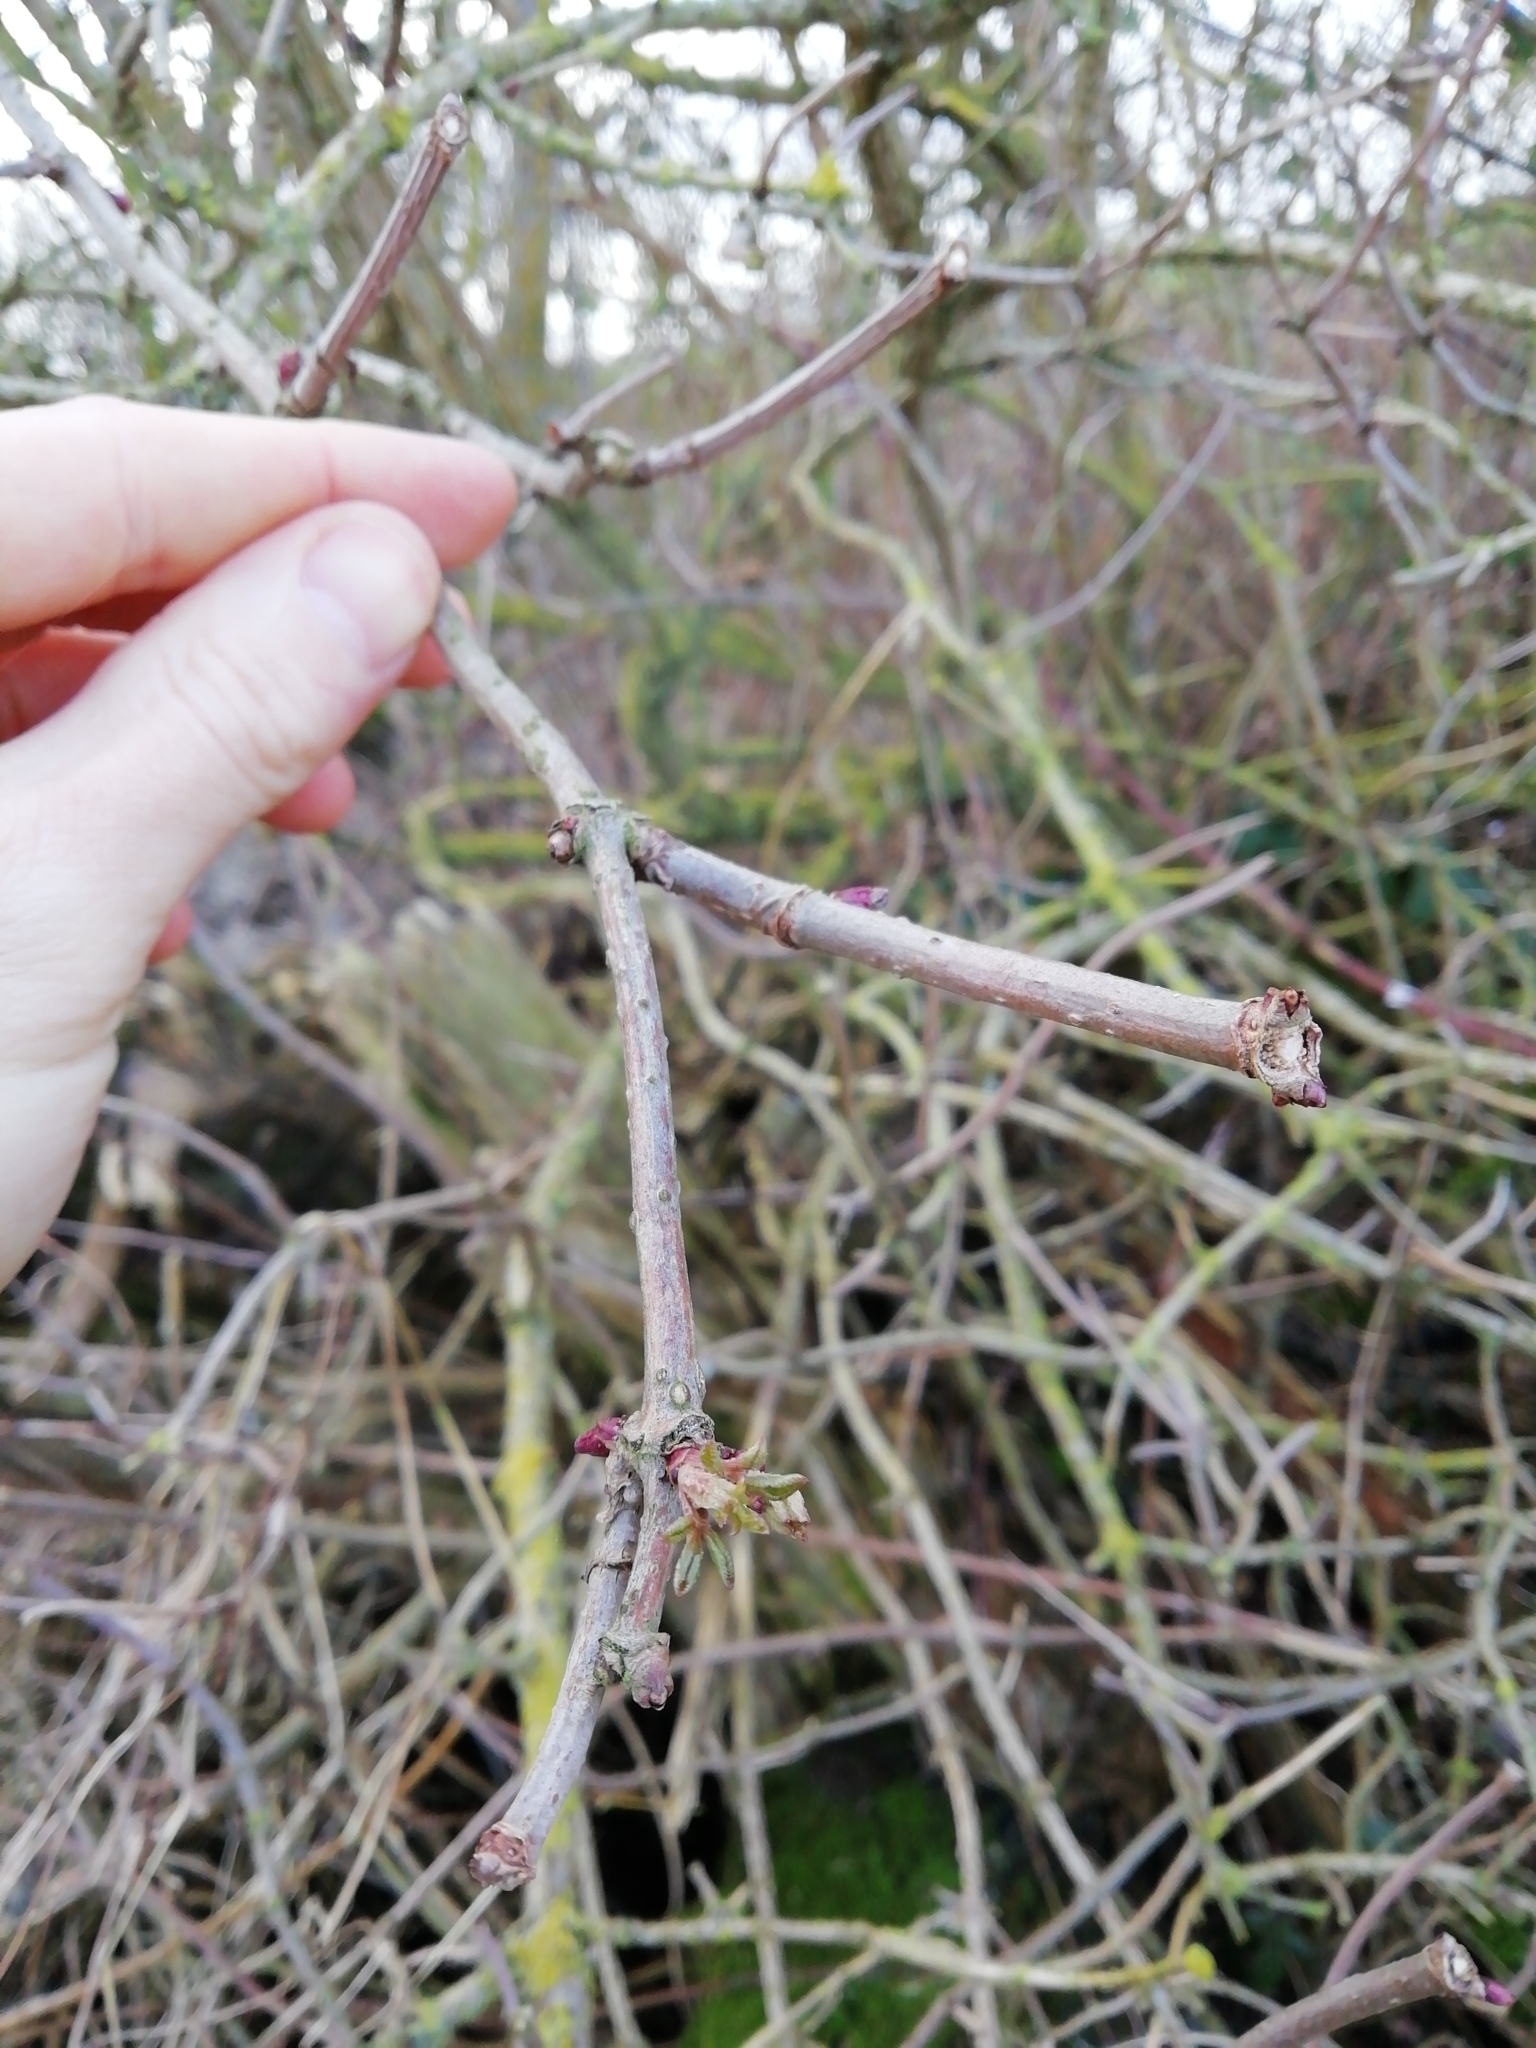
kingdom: Plantae
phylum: Tracheophyta
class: Magnoliopsida
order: Dipsacales
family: Viburnaceae
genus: Sambucus
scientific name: Sambucus nigra
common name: Elder
